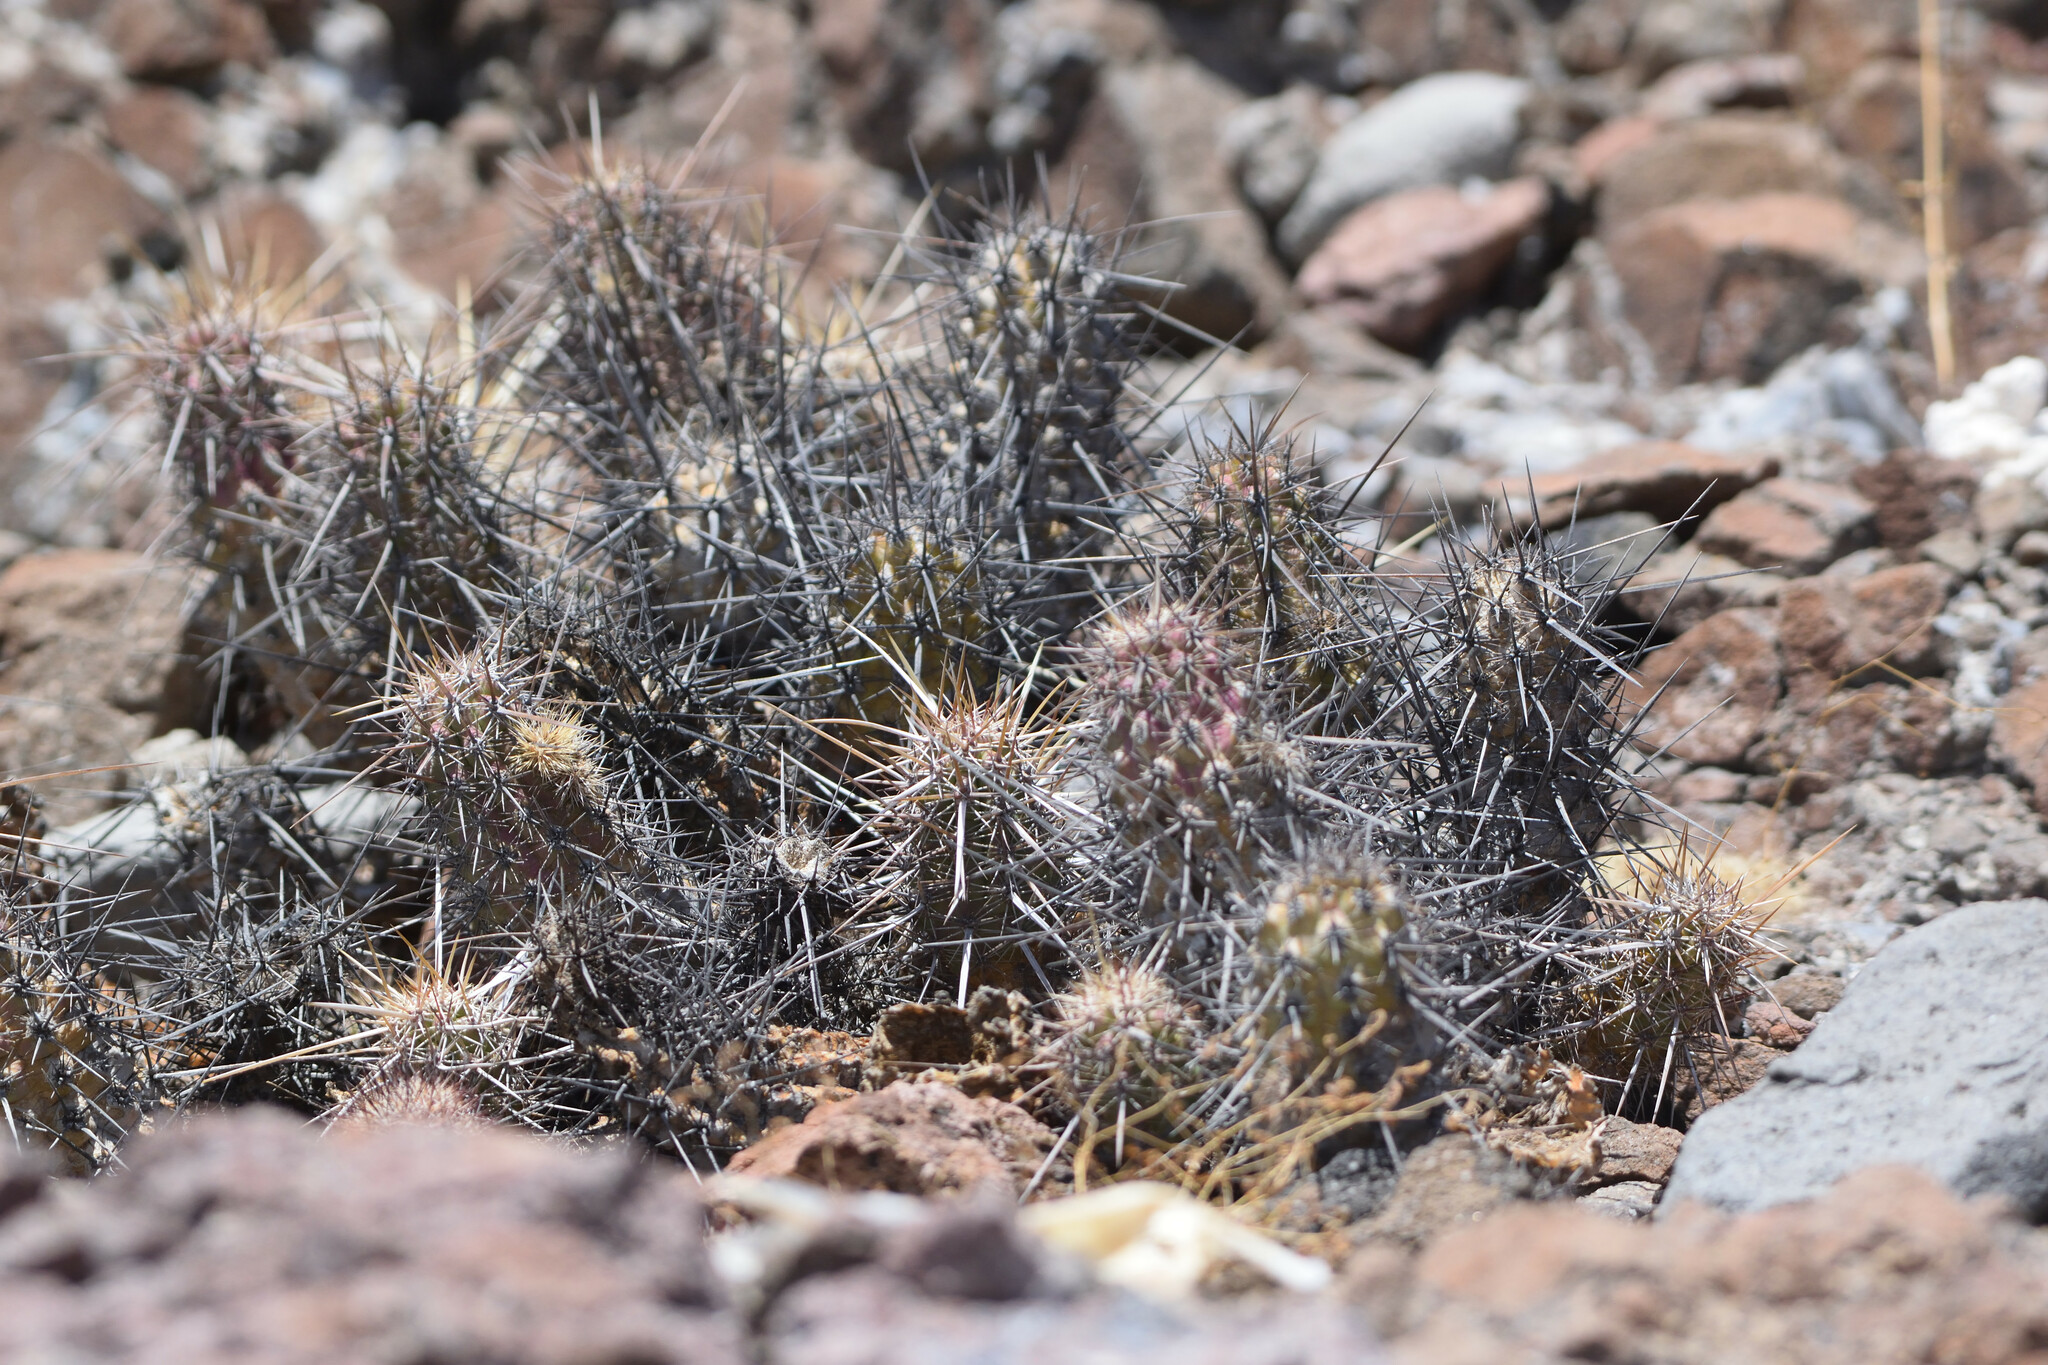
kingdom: Plantae
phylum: Tracheophyta
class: Magnoliopsida
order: Caryophyllales
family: Cactaceae
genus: Echinocereus
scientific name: Echinocereus brandegeei
